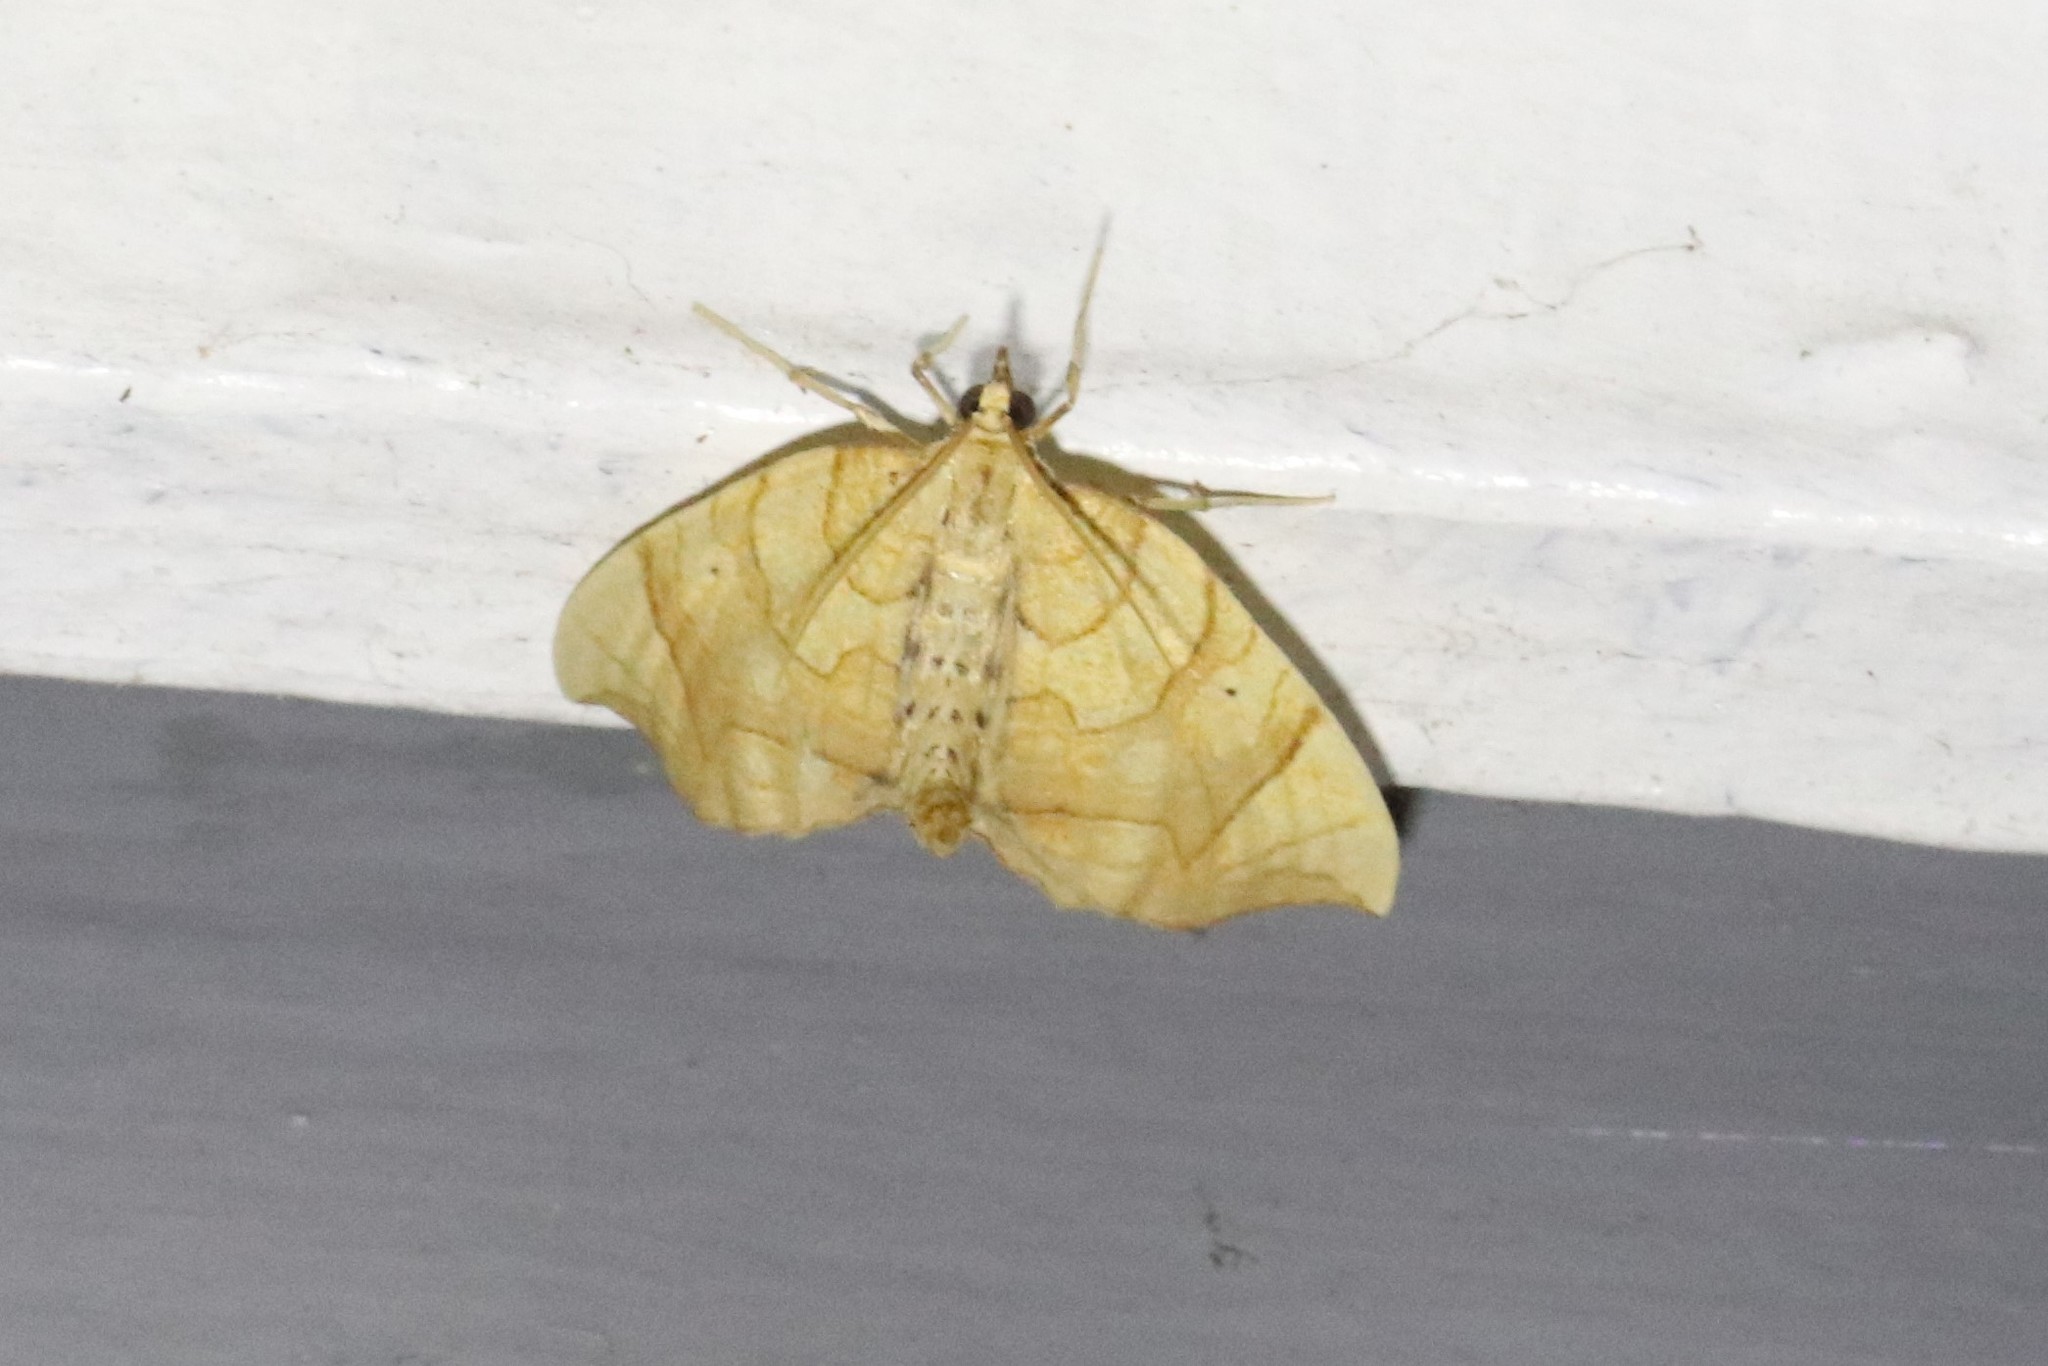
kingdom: Animalia
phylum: Arthropoda
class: Insecta
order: Lepidoptera
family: Geometridae
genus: Eulithis
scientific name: Eulithis
